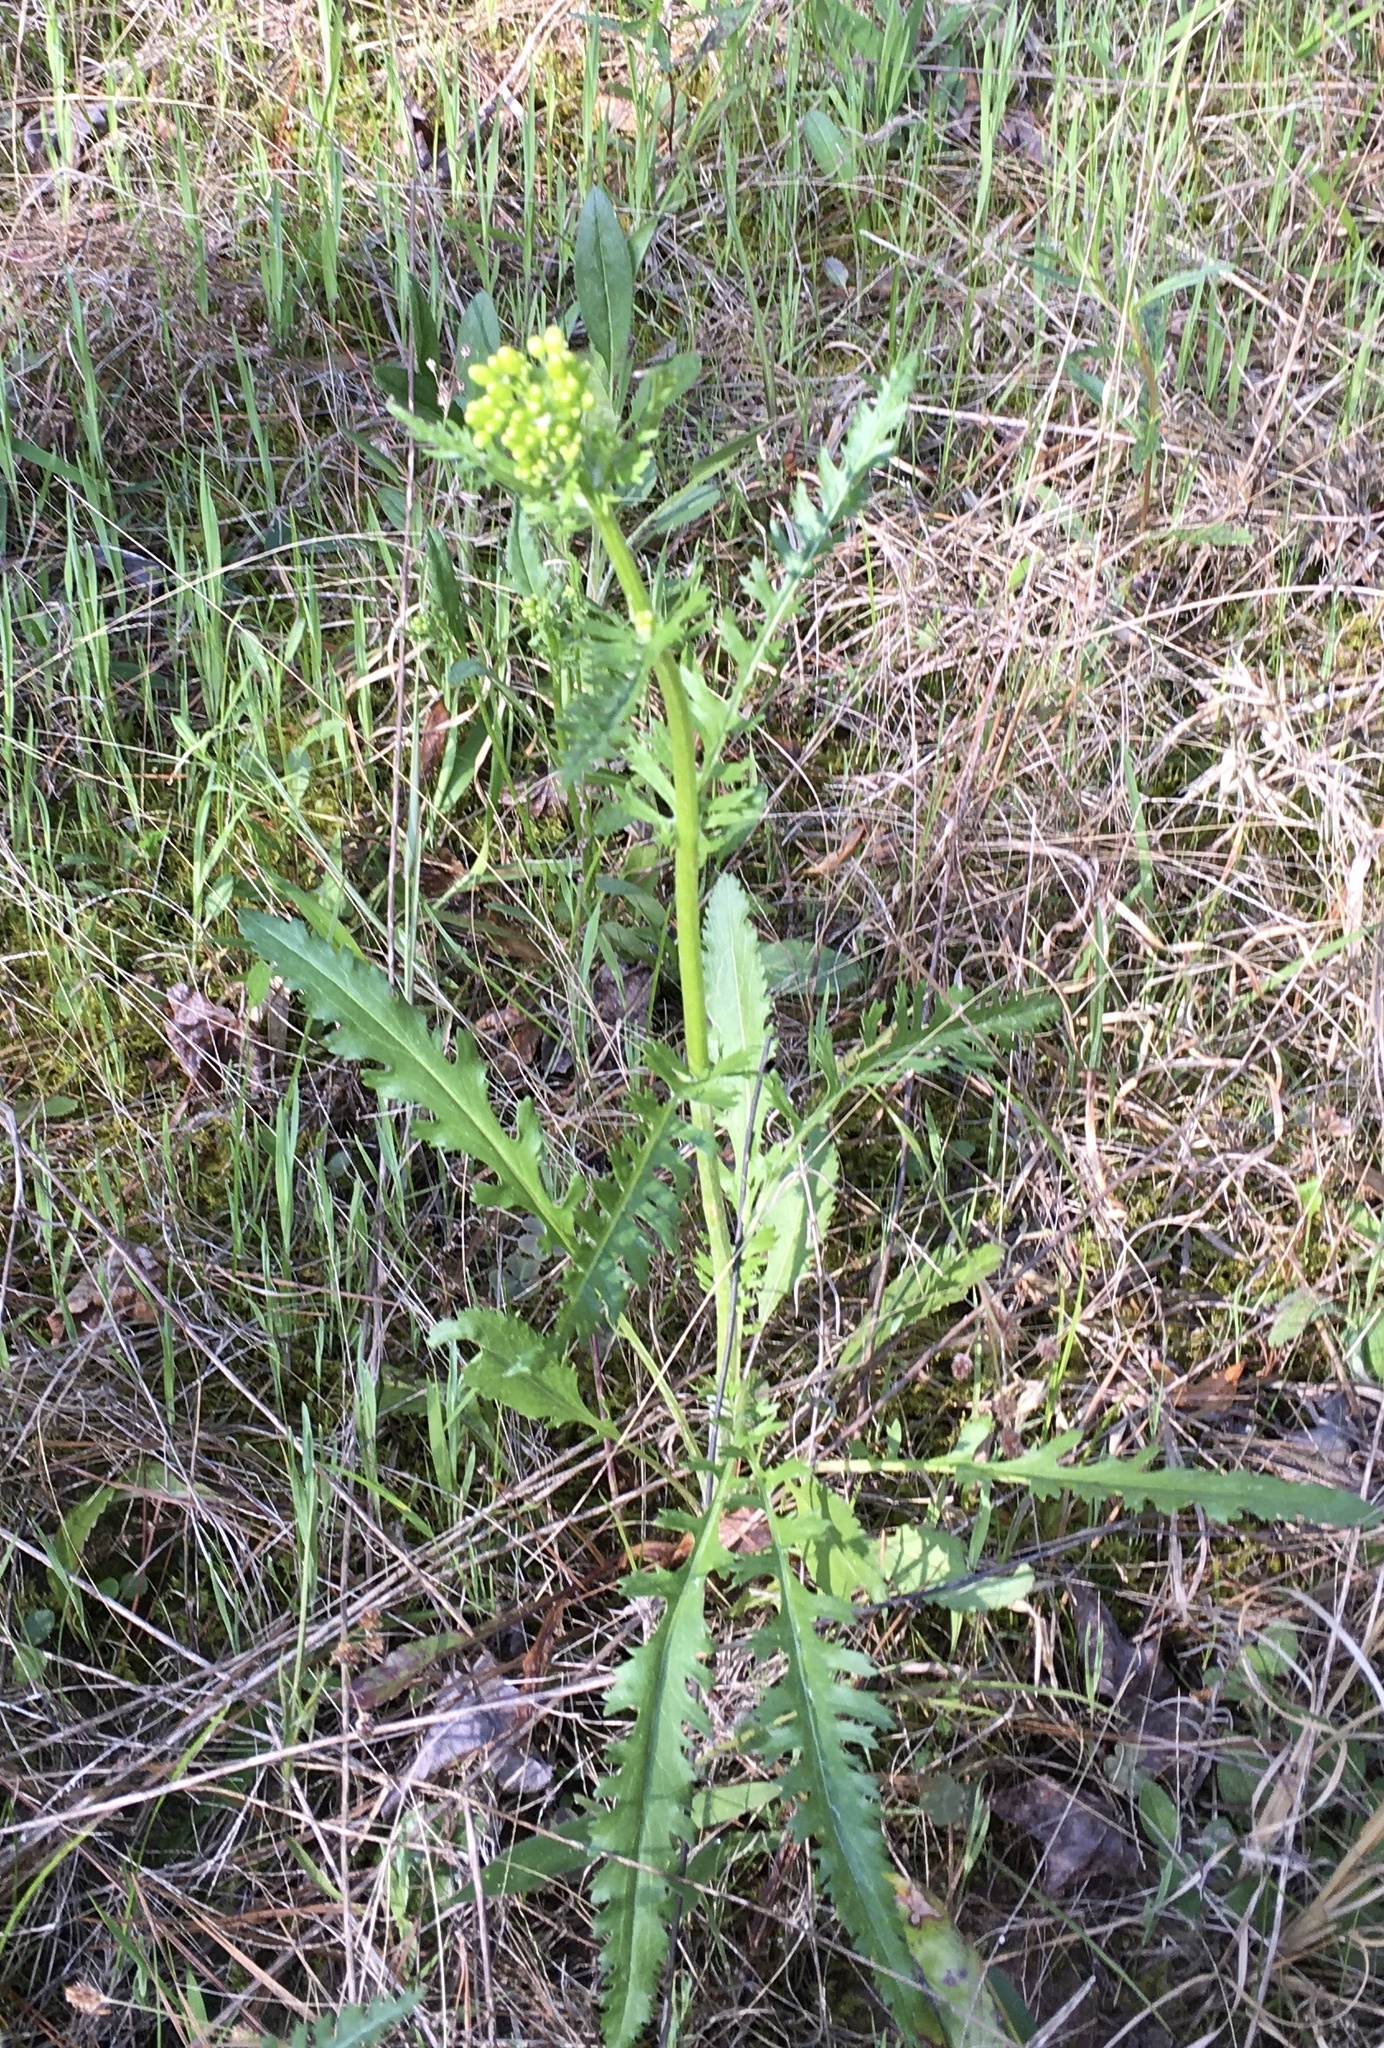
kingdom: Plantae
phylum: Tracheophyta
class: Magnoliopsida
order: Asterales
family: Asteraceae
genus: Packera
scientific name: Packera anonyma
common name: Small ragwort
